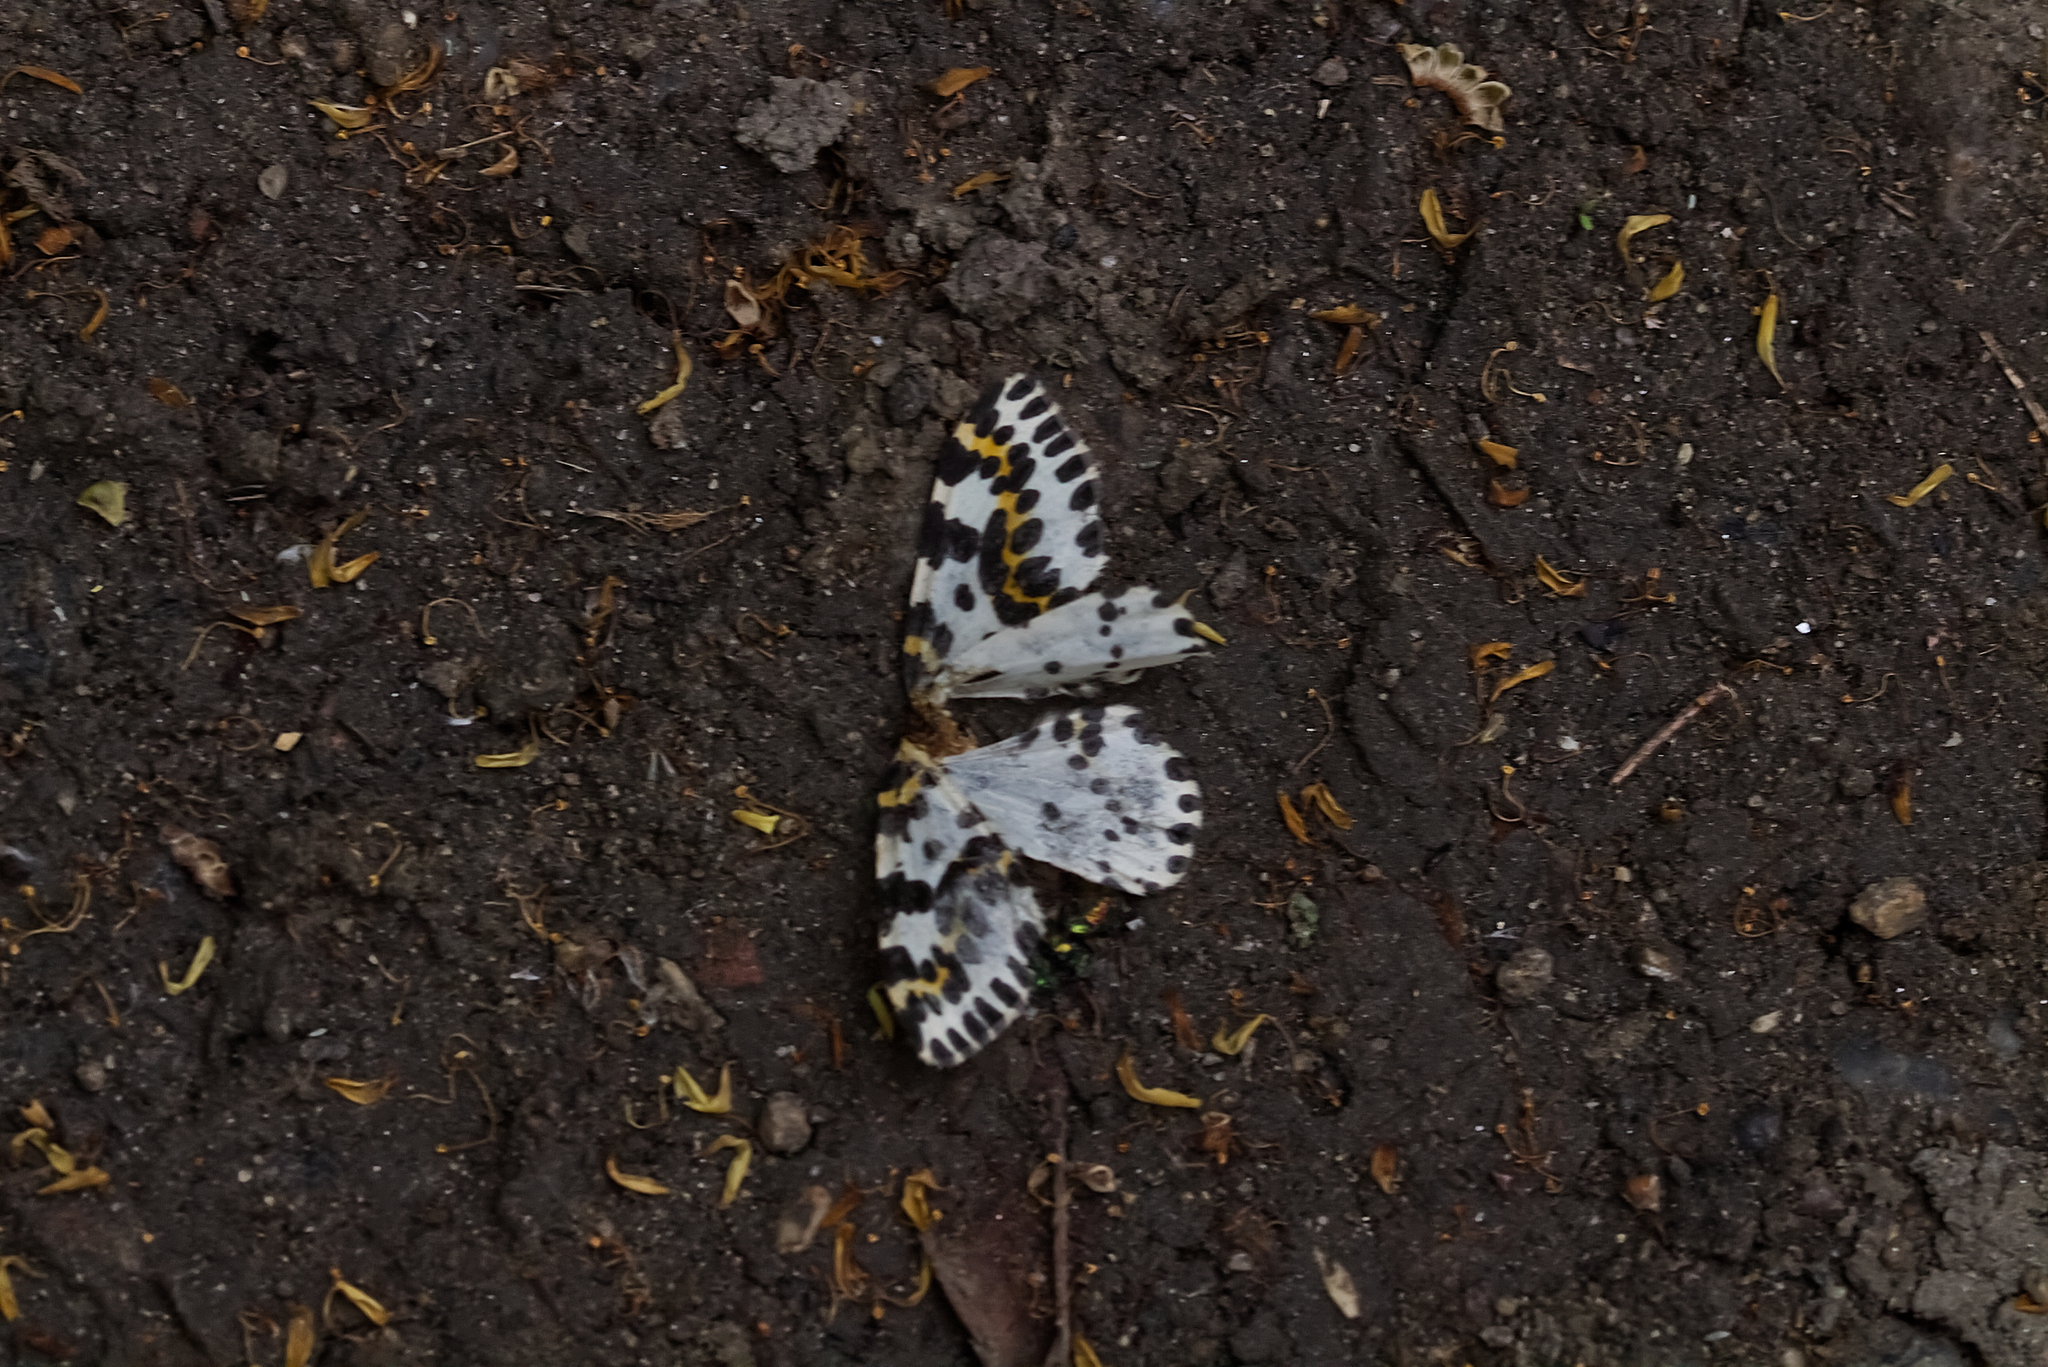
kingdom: Animalia
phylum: Arthropoda
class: Insecta
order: Lepidoptera
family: Geometridae
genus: Abraxas
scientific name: Abraxas grossulariata
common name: Magpie
